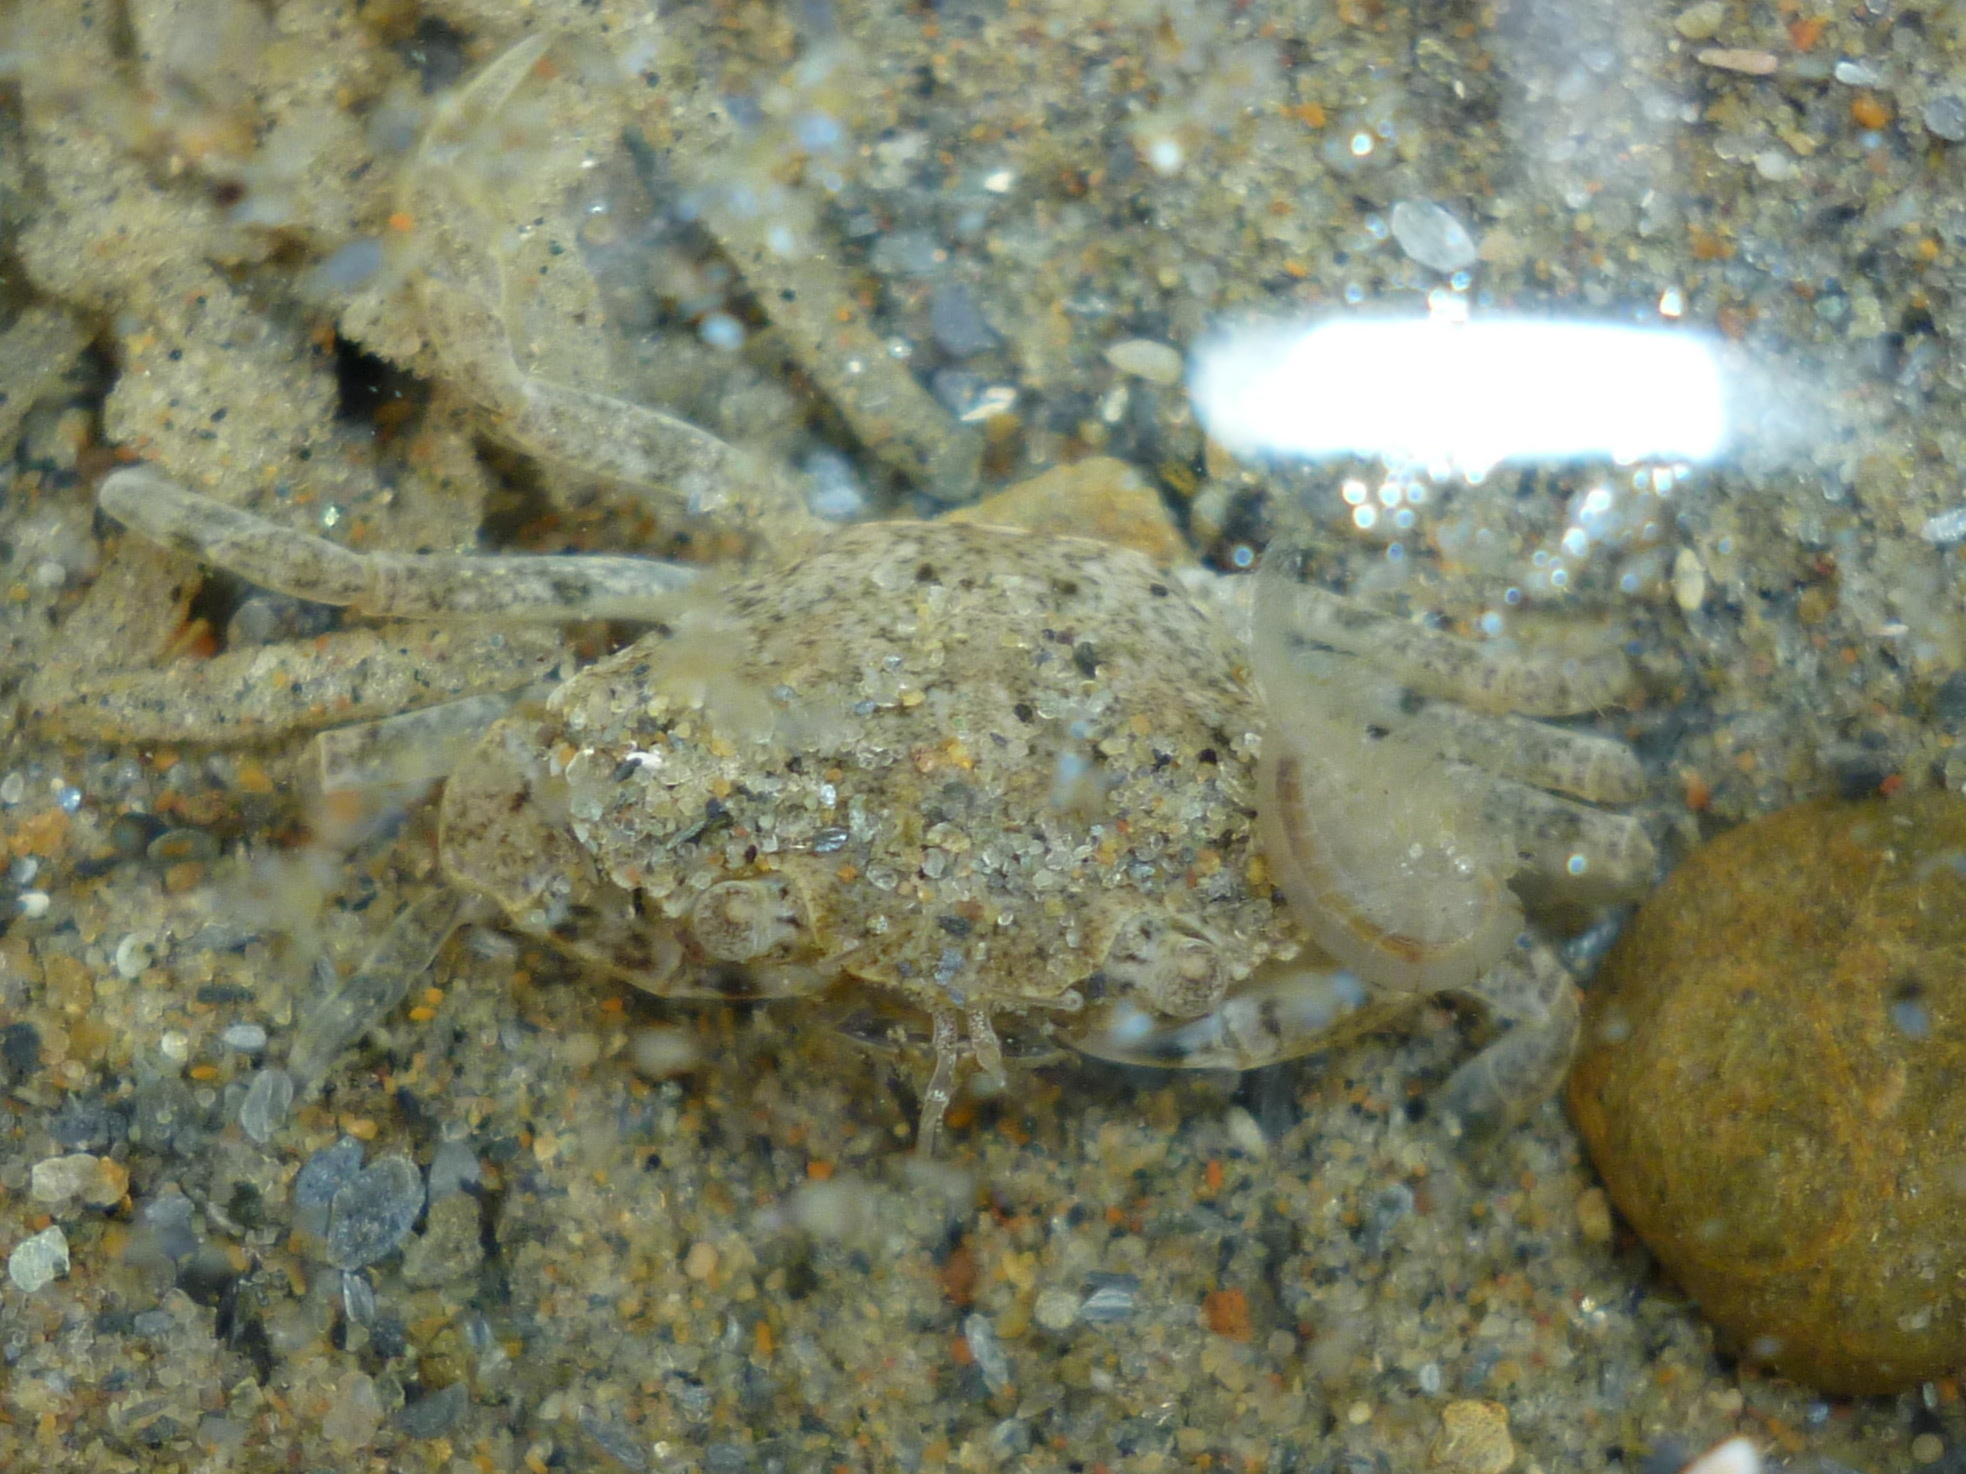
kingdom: Animalia
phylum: Arthropoda
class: Malacostraca
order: Decapoda
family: Carcinidae
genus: Carcinus
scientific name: Carcinus maenas
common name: European green crab
